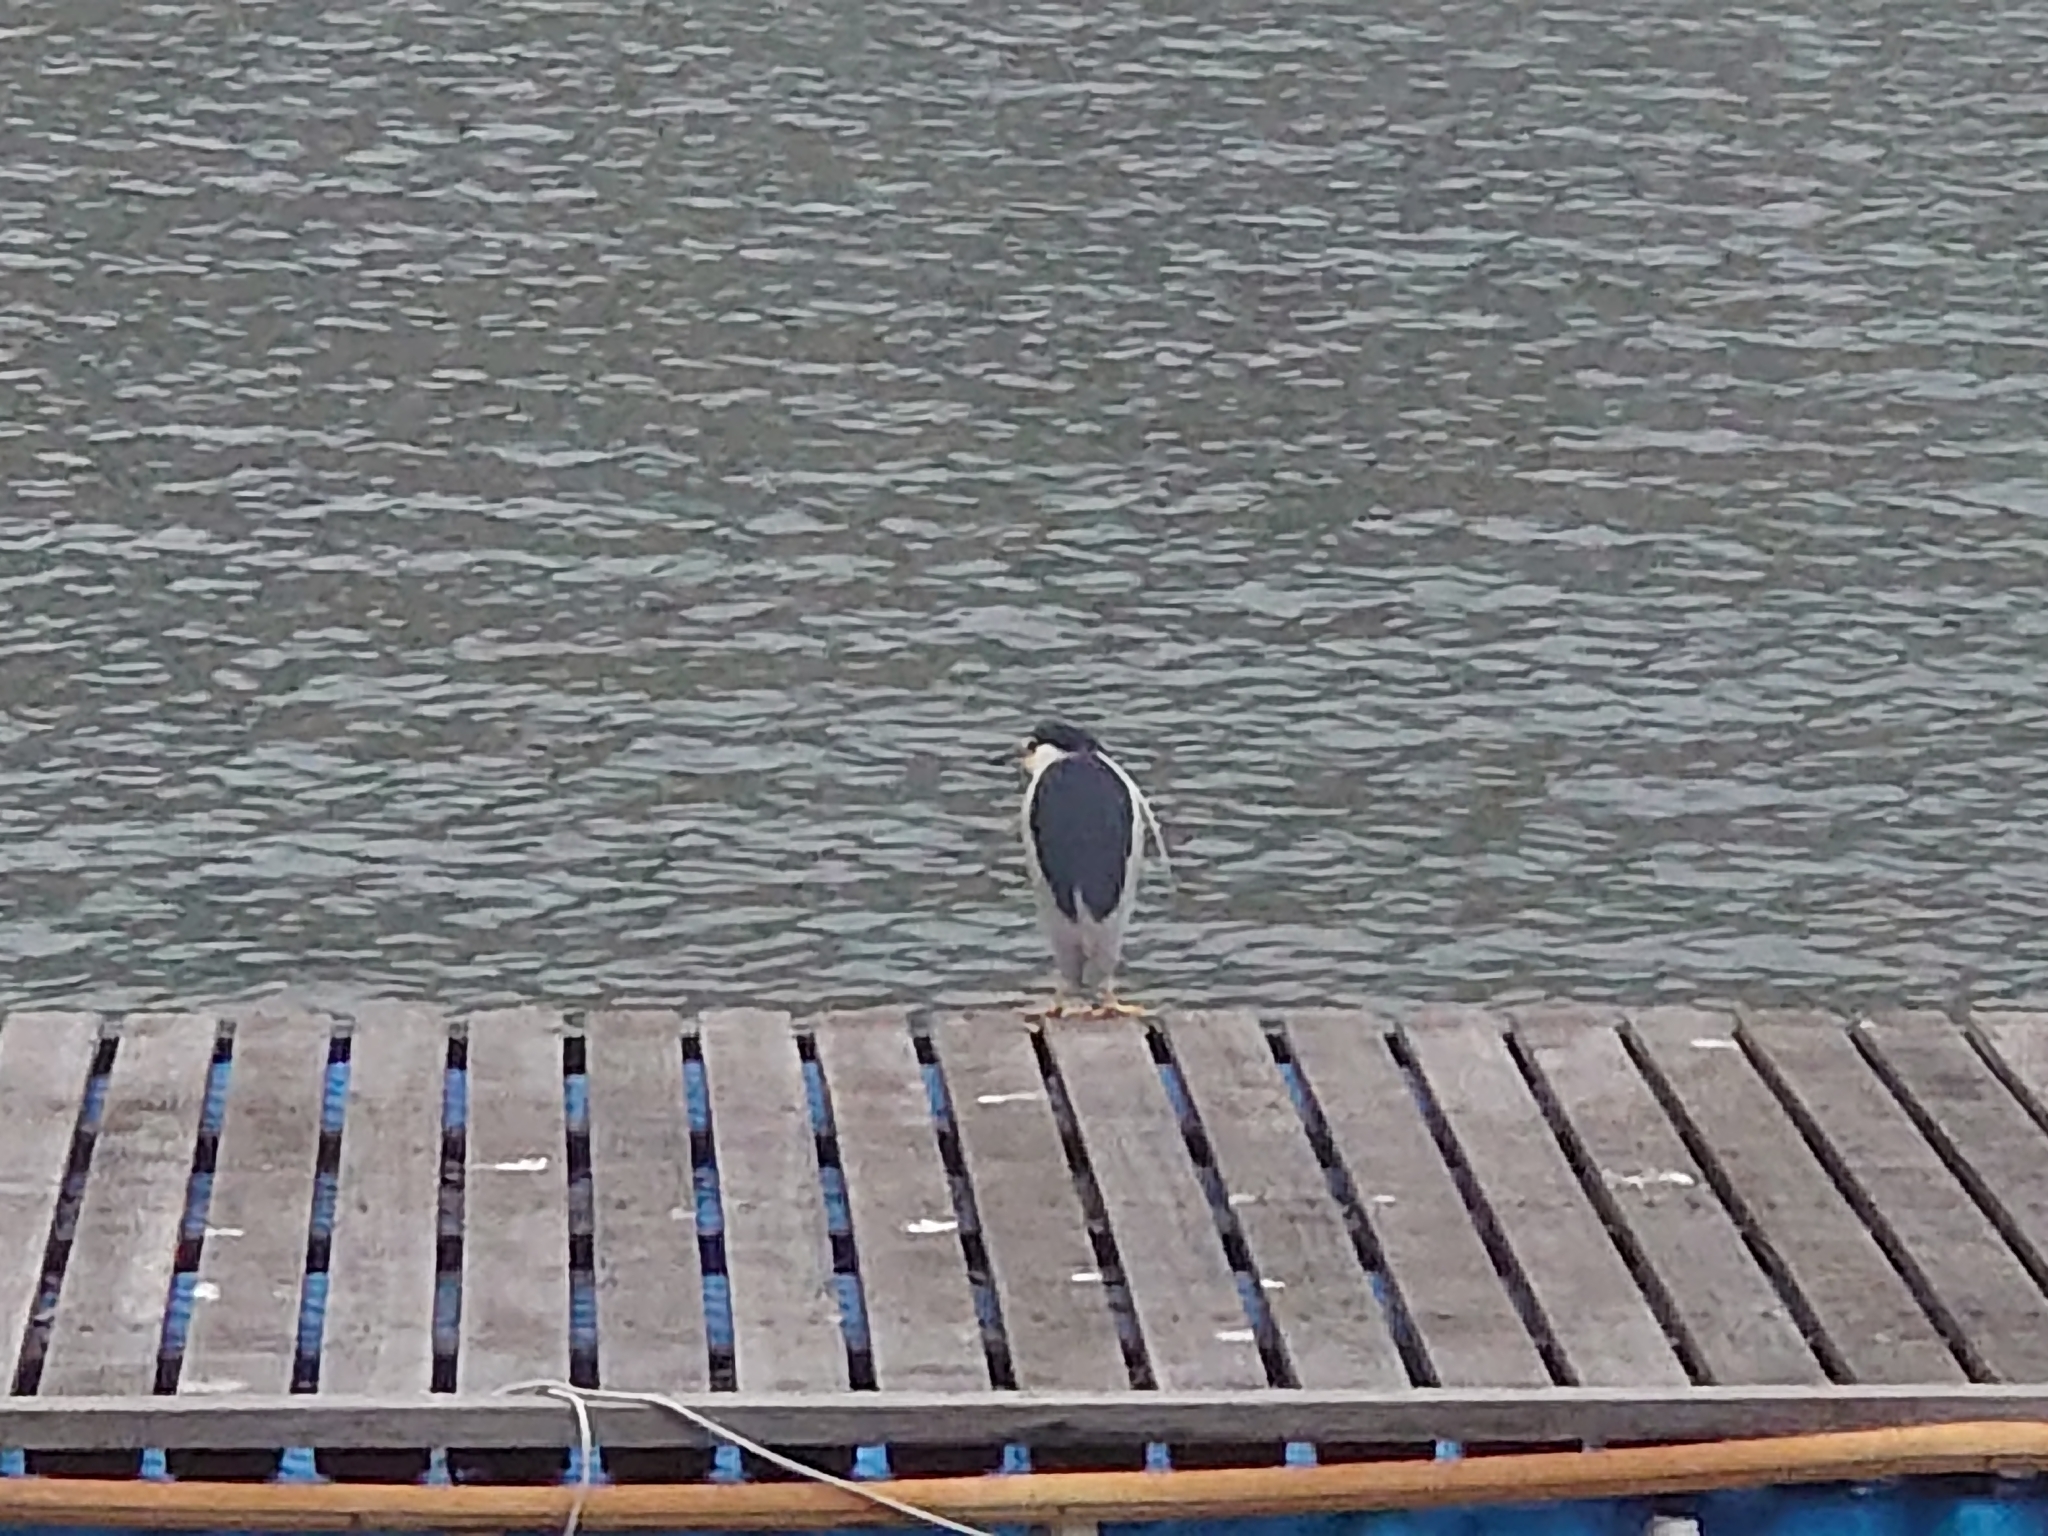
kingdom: Animalia
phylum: Chordata
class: Aves
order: Pelecaniformes
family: Ardeidae
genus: Nycticorax
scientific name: Nycticorax nycticorax
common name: Black-crowned night heron
